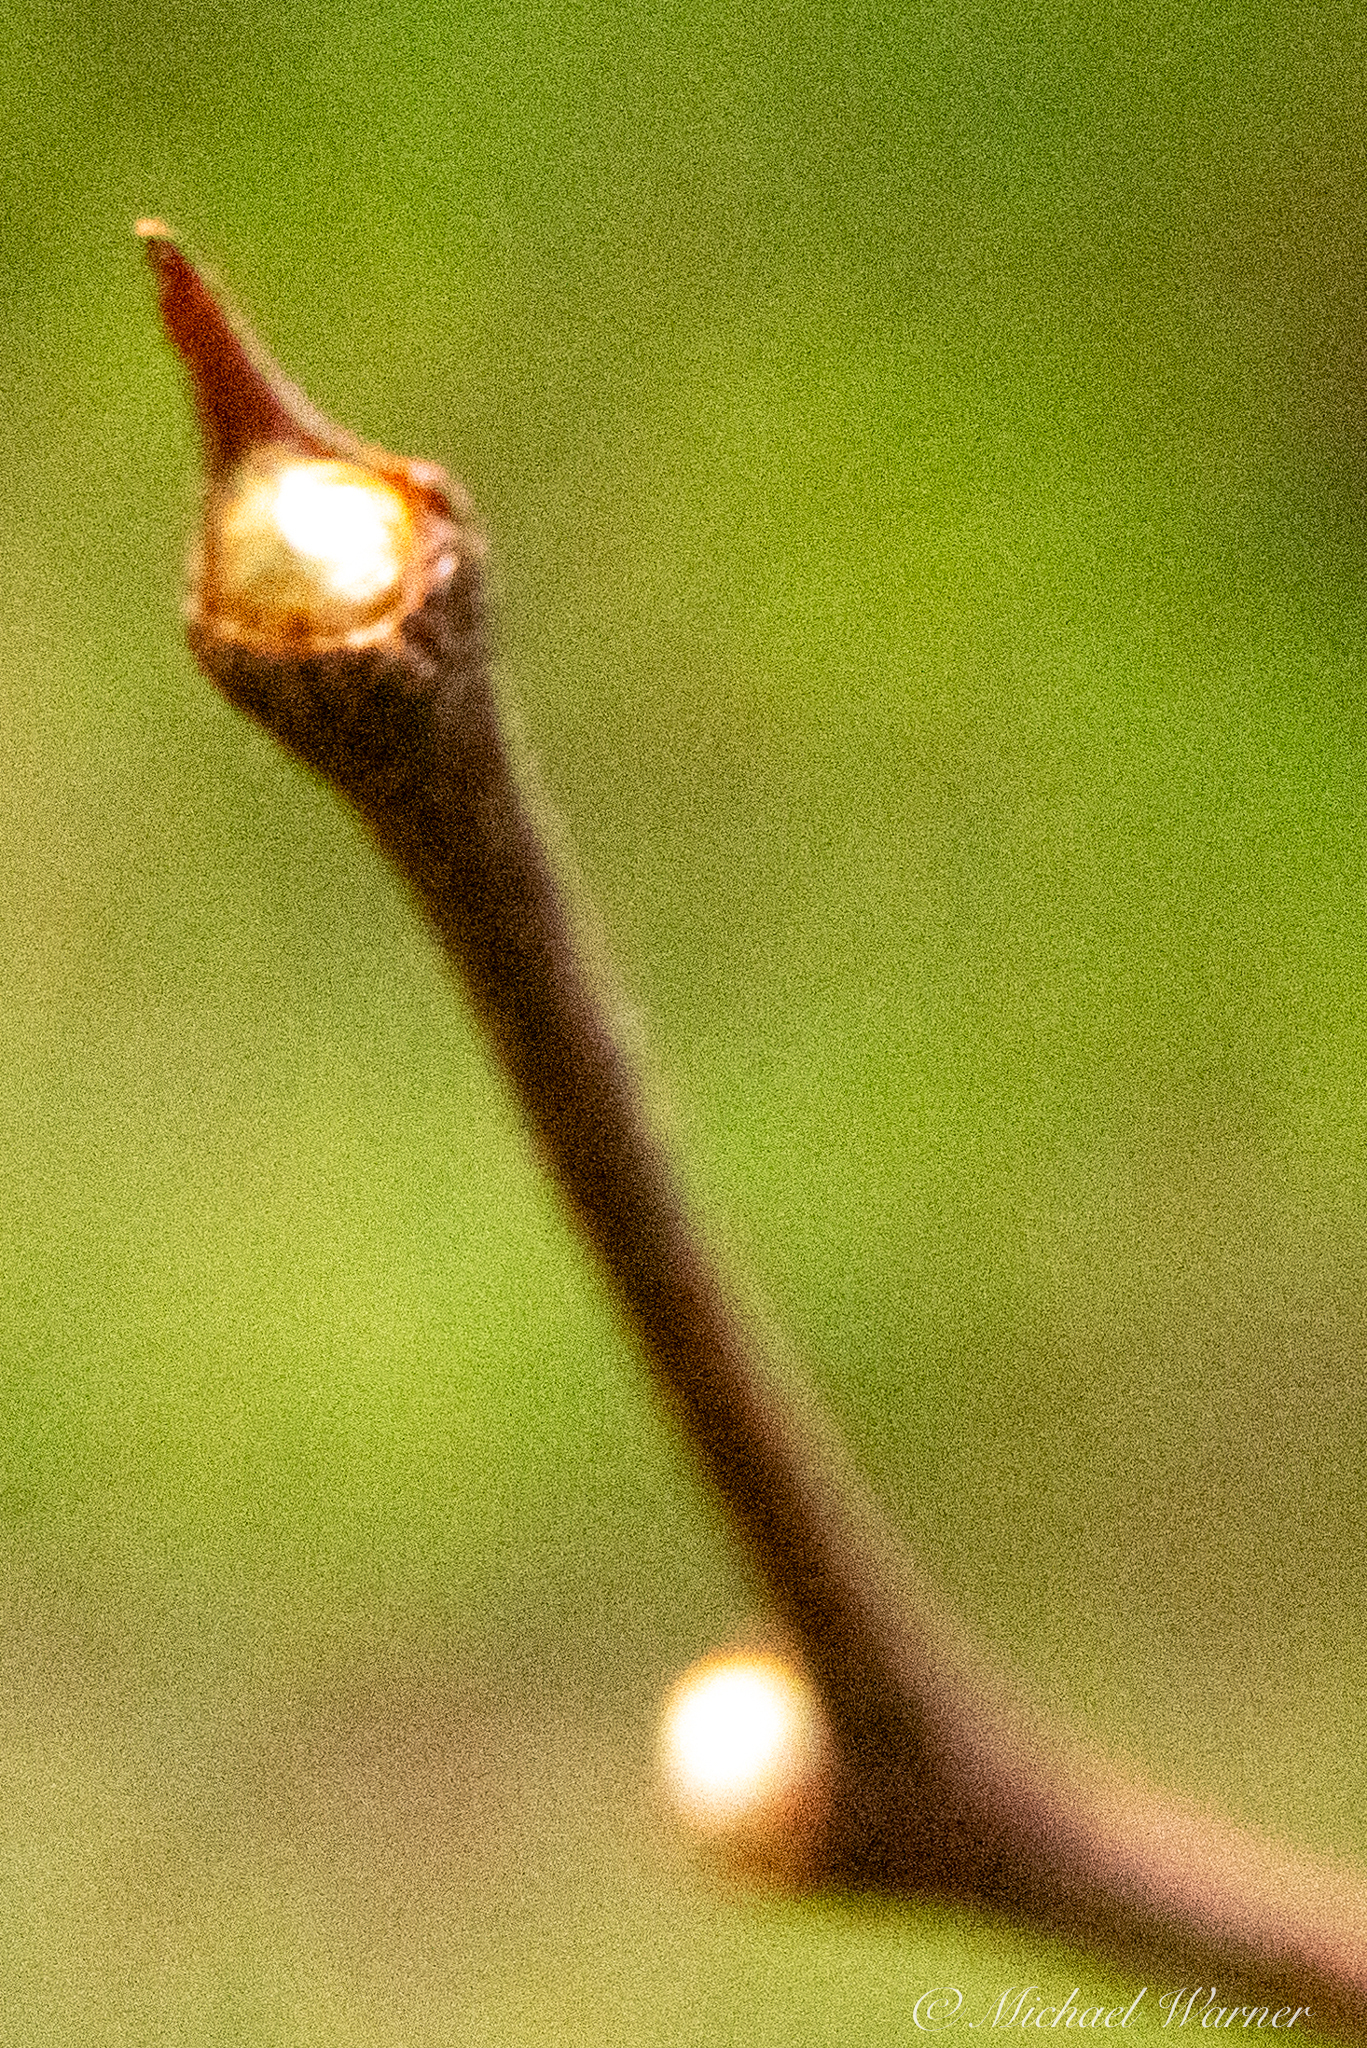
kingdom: Plantae
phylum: Tracheophyta
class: Magnoliopsida
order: Malvales
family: Thymelaeaceae
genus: Dirca
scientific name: Dirca occidentalis
